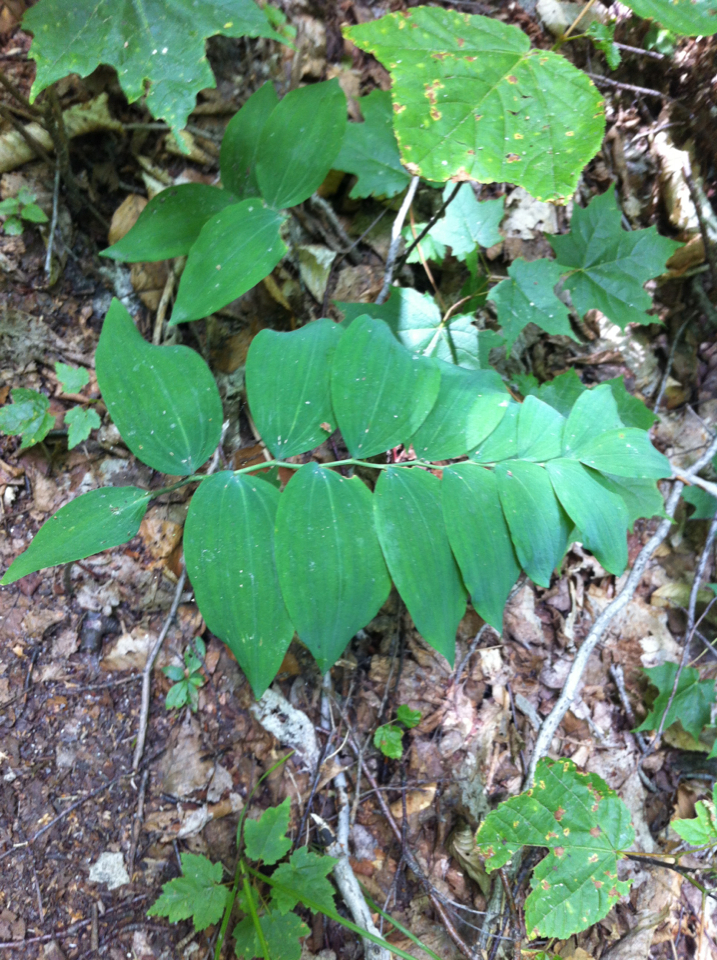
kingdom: Plantae
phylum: Tracheophyta
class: Liliopsida
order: Asparagales
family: Asparagaceae
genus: Polygonatum
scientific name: Polygonatum pubescens
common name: Downy solomon's seal
